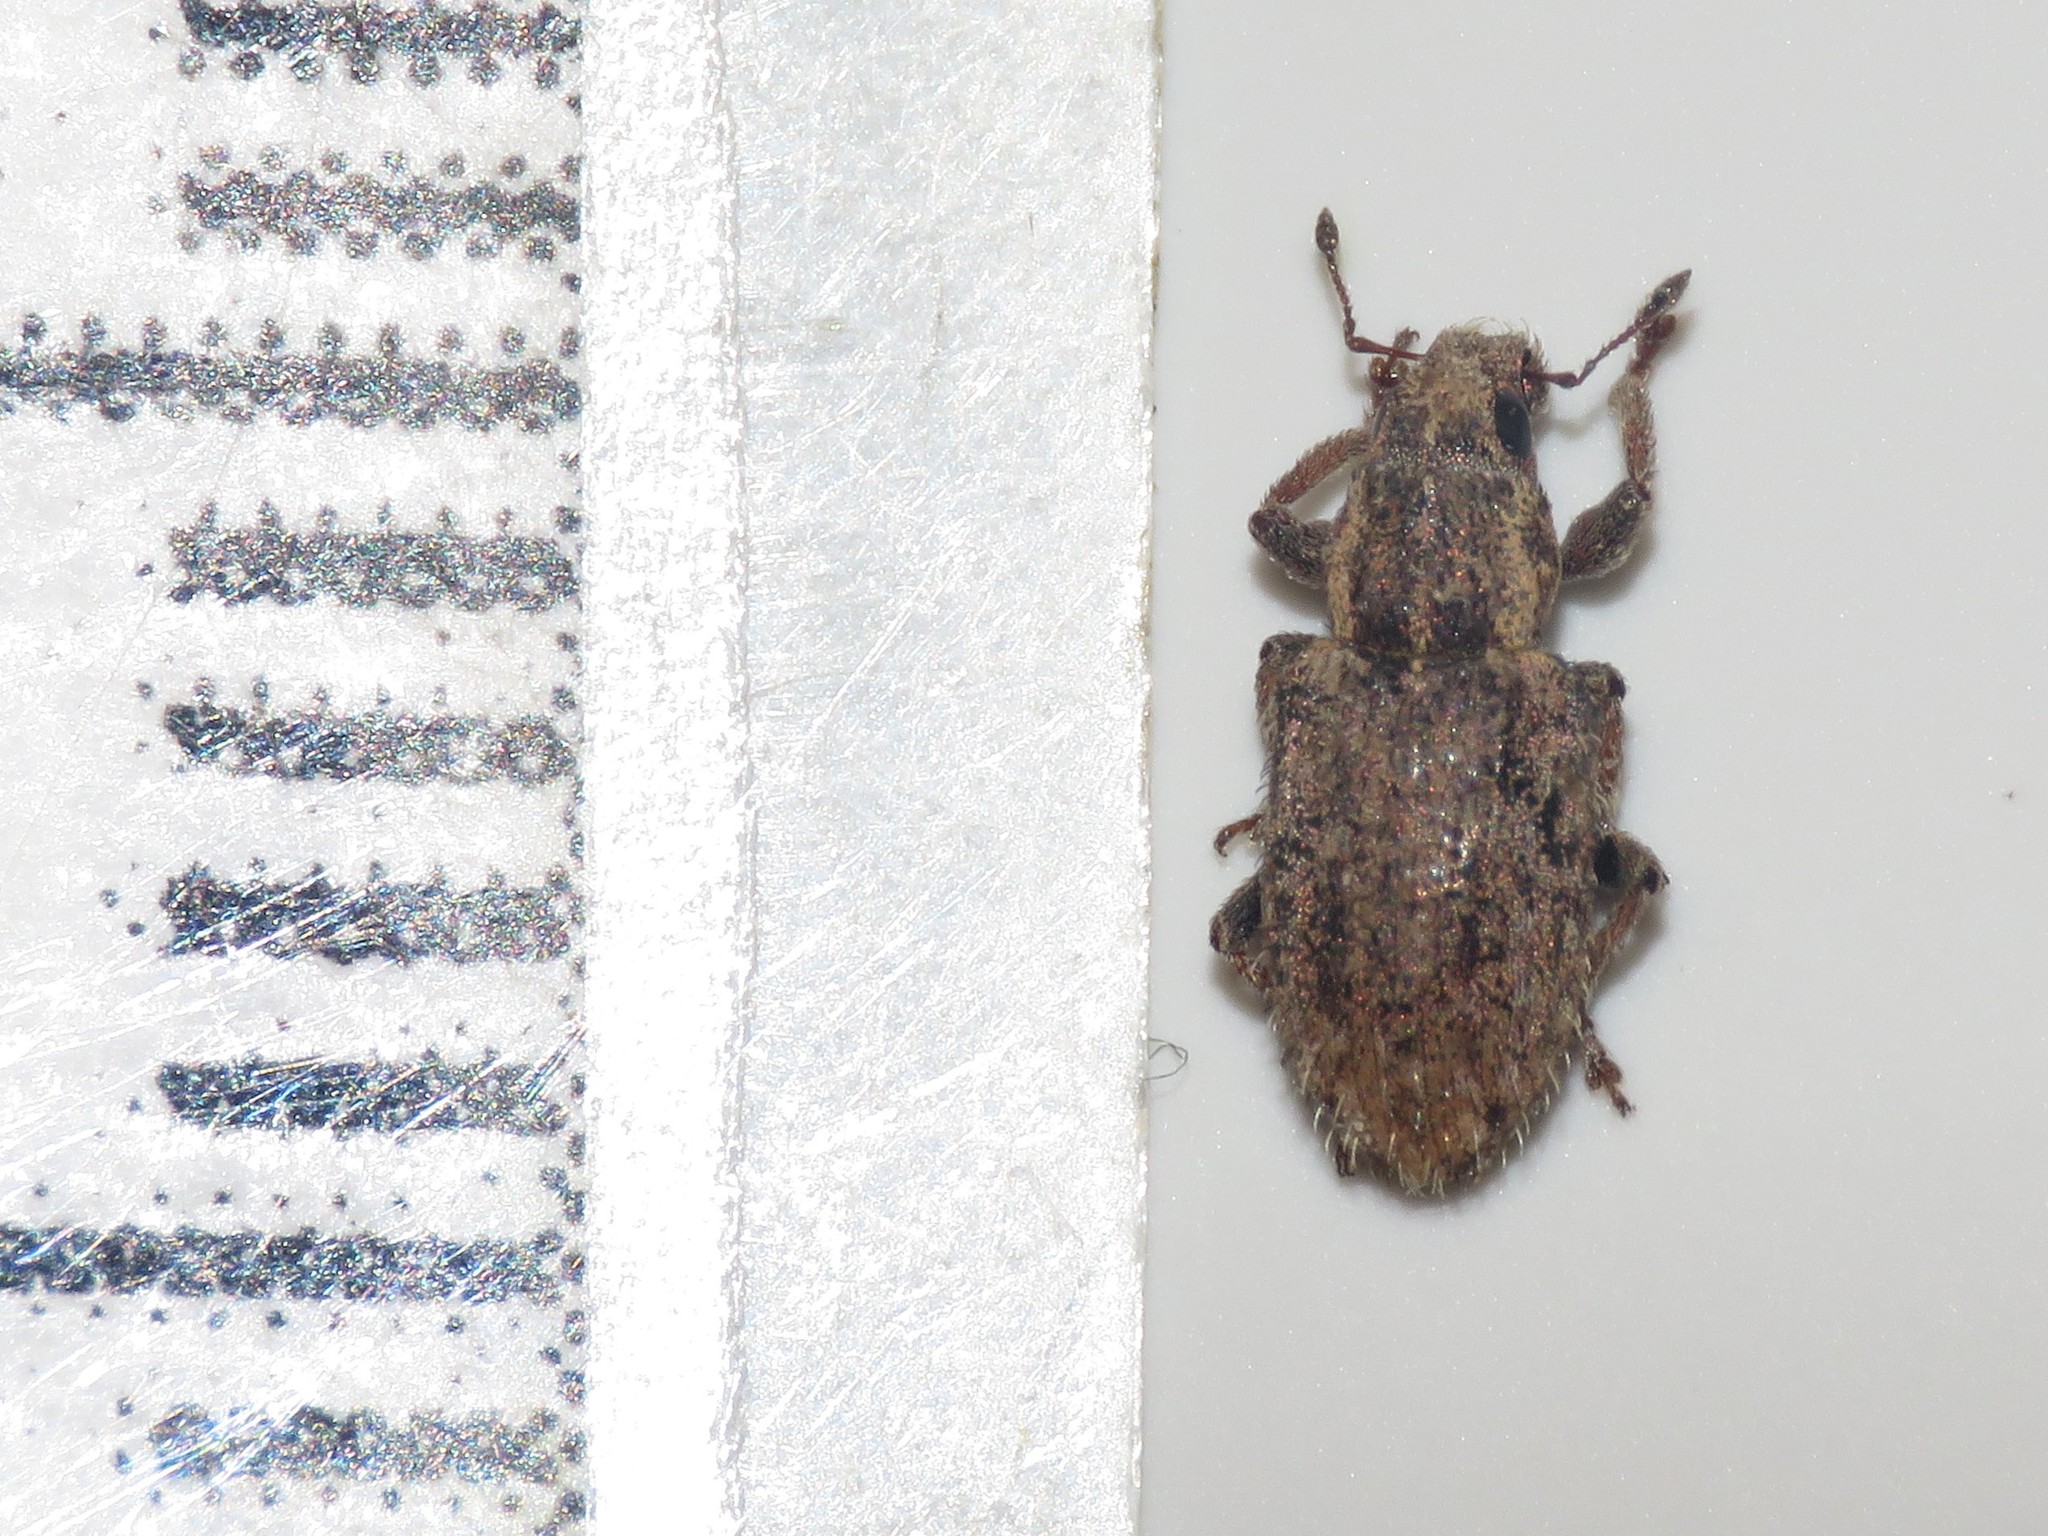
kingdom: Animalia
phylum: Arthropoda
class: Insecta
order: Coleoptera
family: Curculionidae
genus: Sitona
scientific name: Sitona hispidulus
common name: Clover weevil
